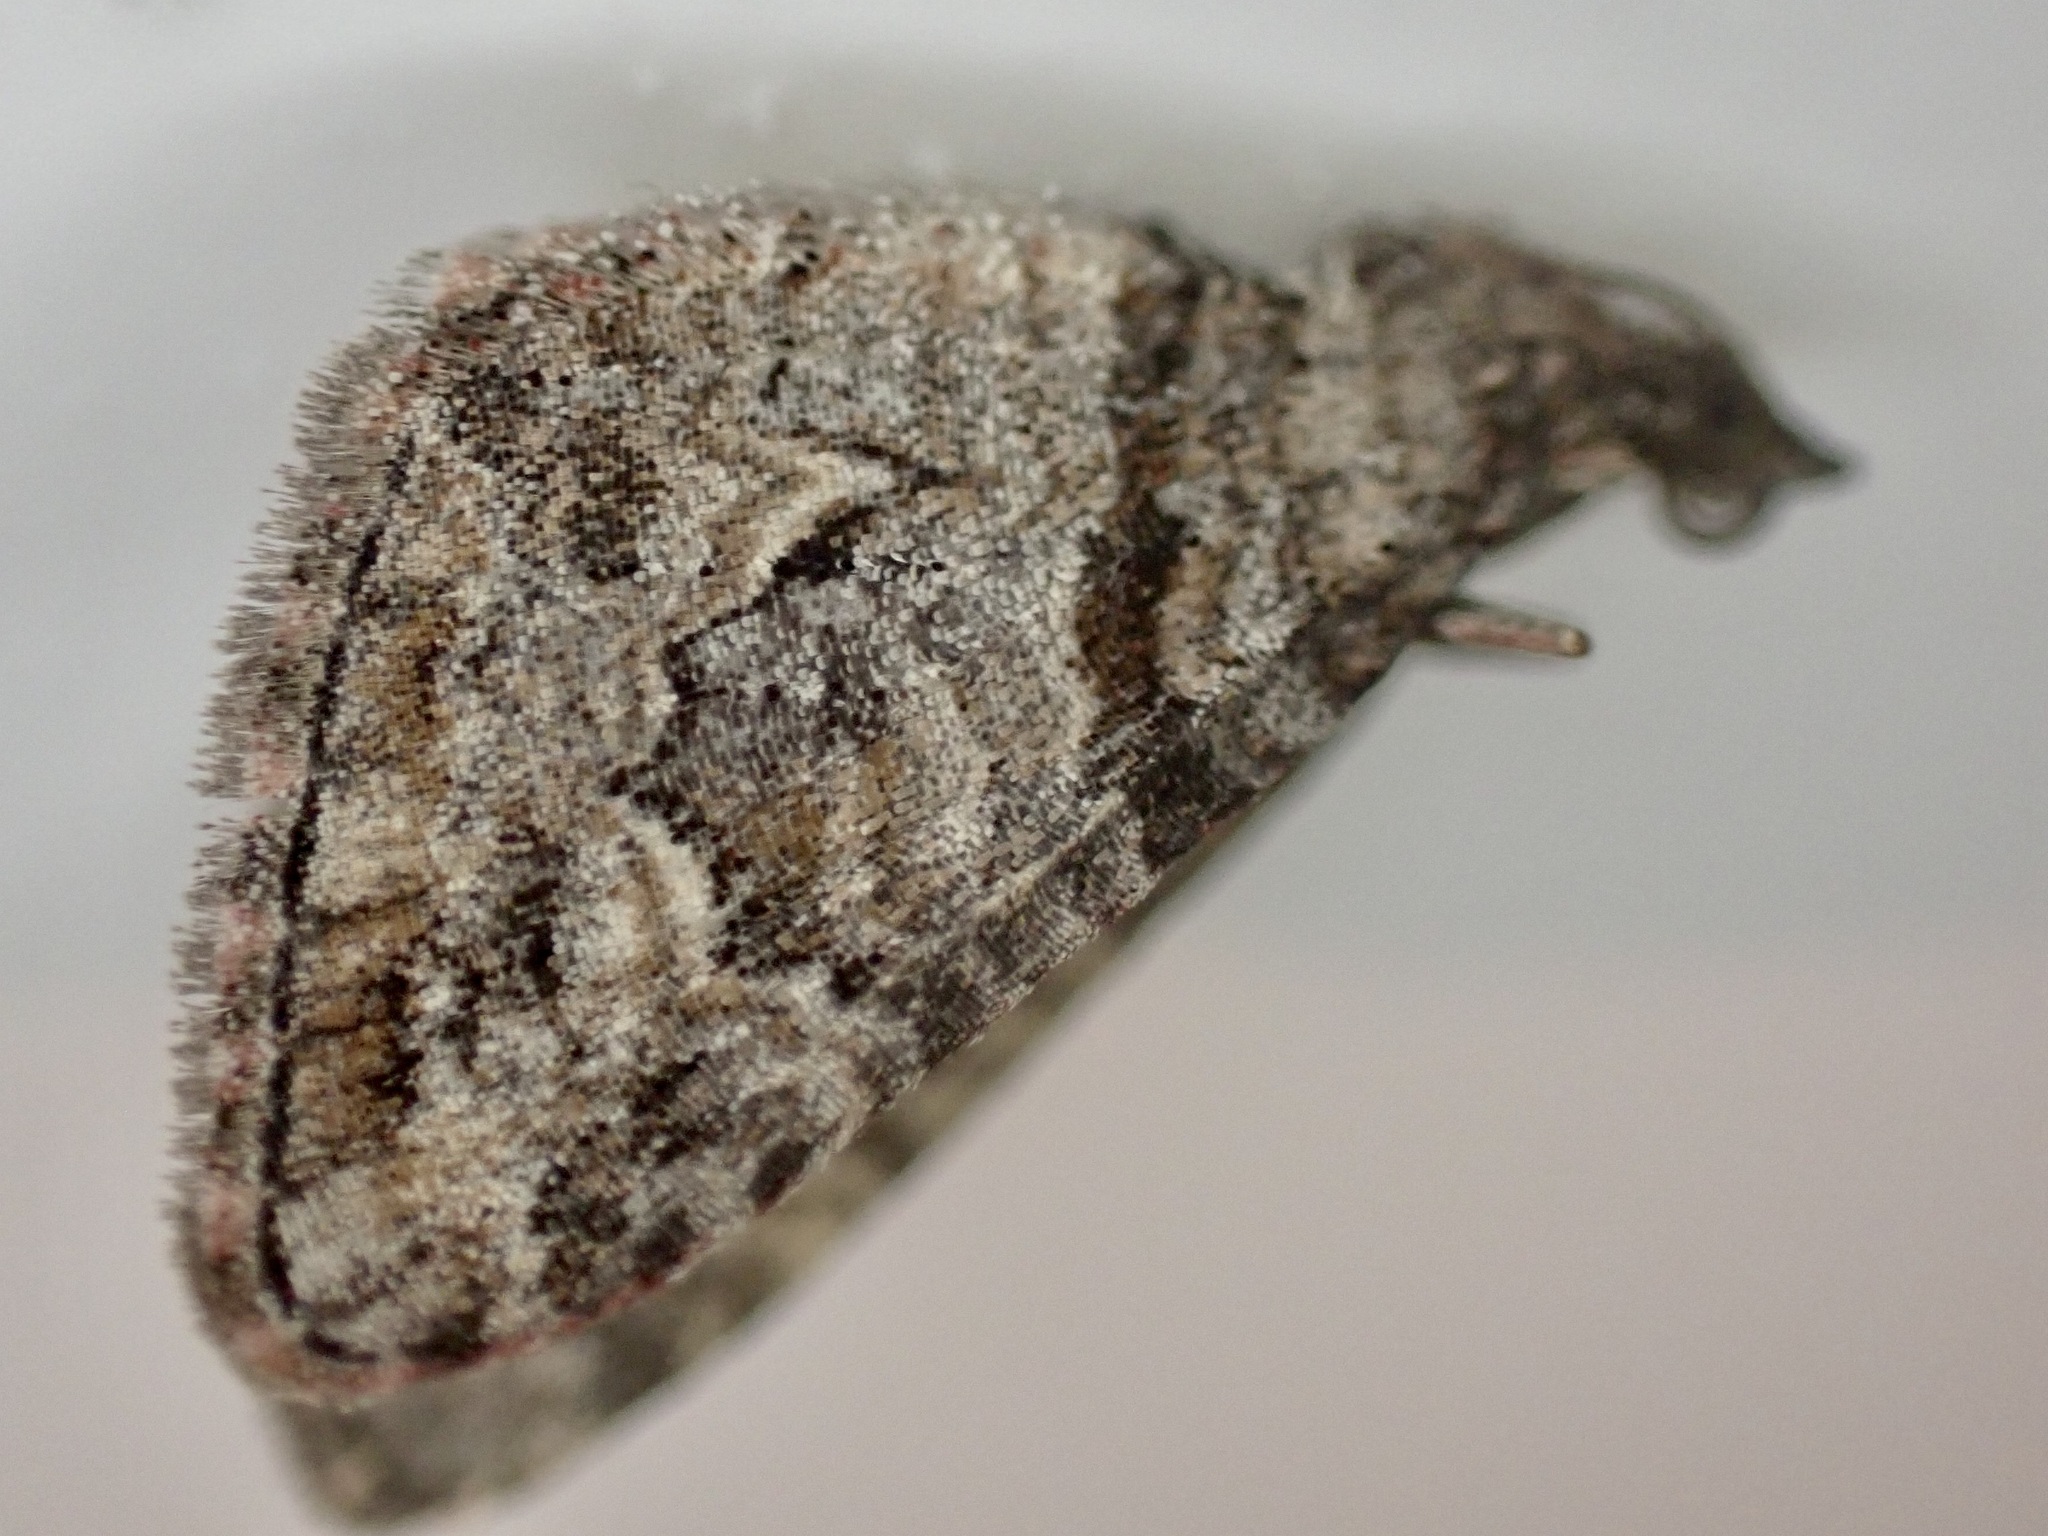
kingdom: Animalia
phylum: Arthropoda
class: Insecta
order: Lepidoptera
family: Geometridae
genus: Phrissogonus
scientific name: Phrissogonus laticostata
